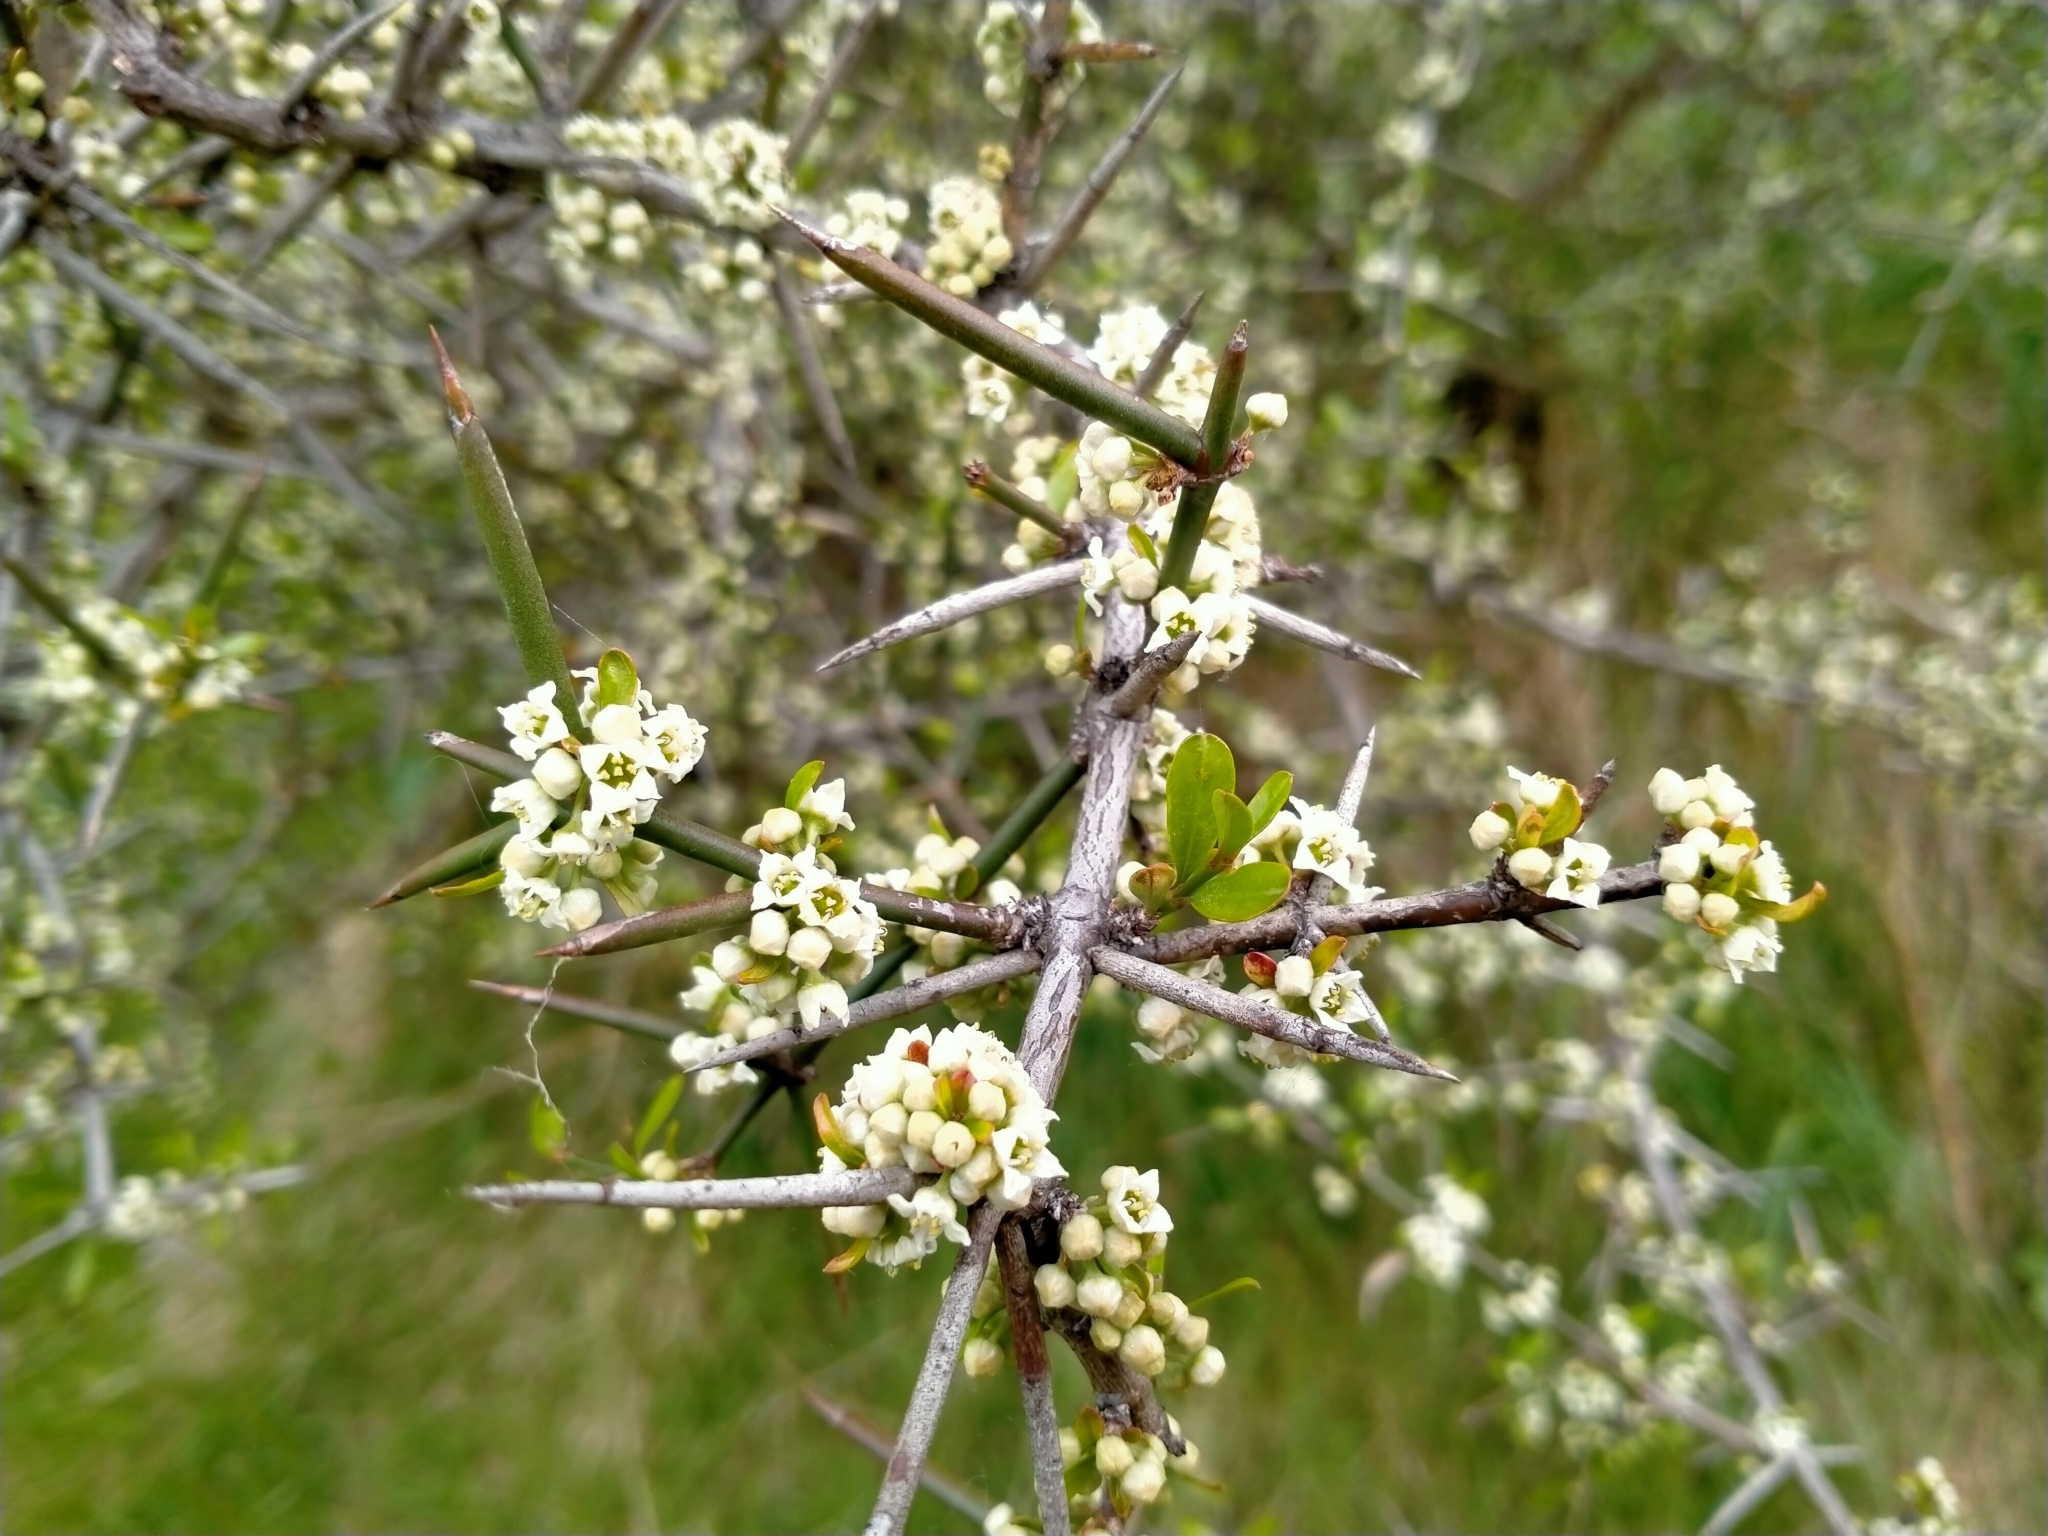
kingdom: Plantae
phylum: Tracheophyta
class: Magnoliopsida
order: Rosales
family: Rhamnaceae
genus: Discaria
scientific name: Discaria toumatou
